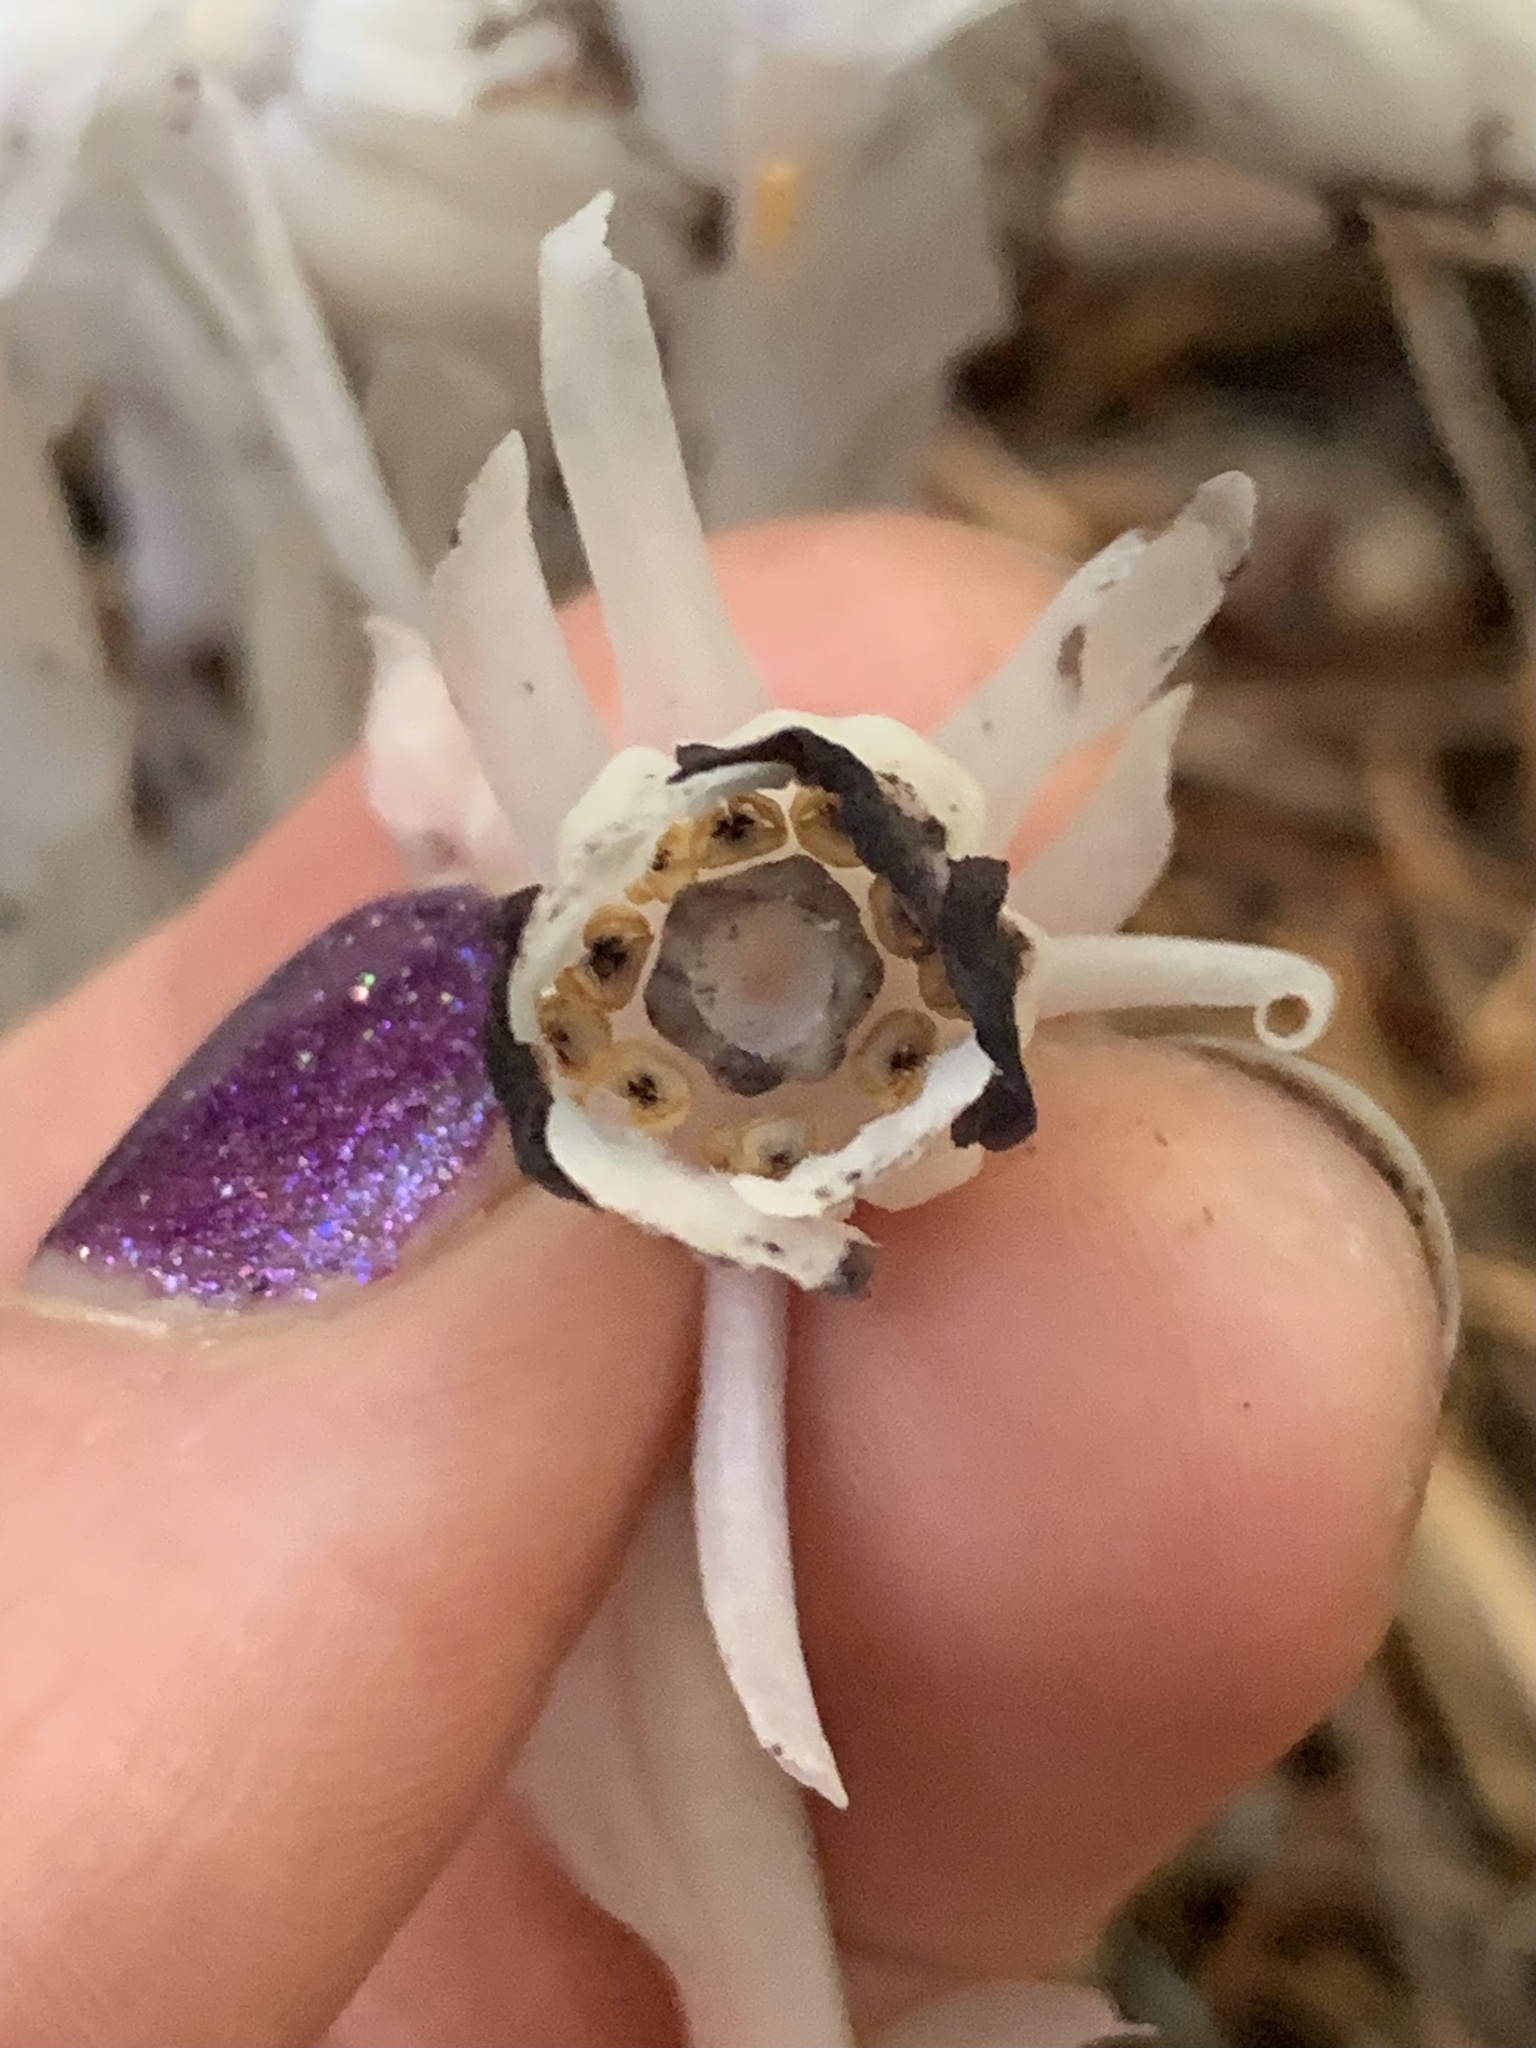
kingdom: Plantae
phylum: Tracheophyta
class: Magnoliopsida
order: Ericales
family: Ericaceae
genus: Monotropa
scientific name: Monotropa uniflora
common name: Convulsion root
